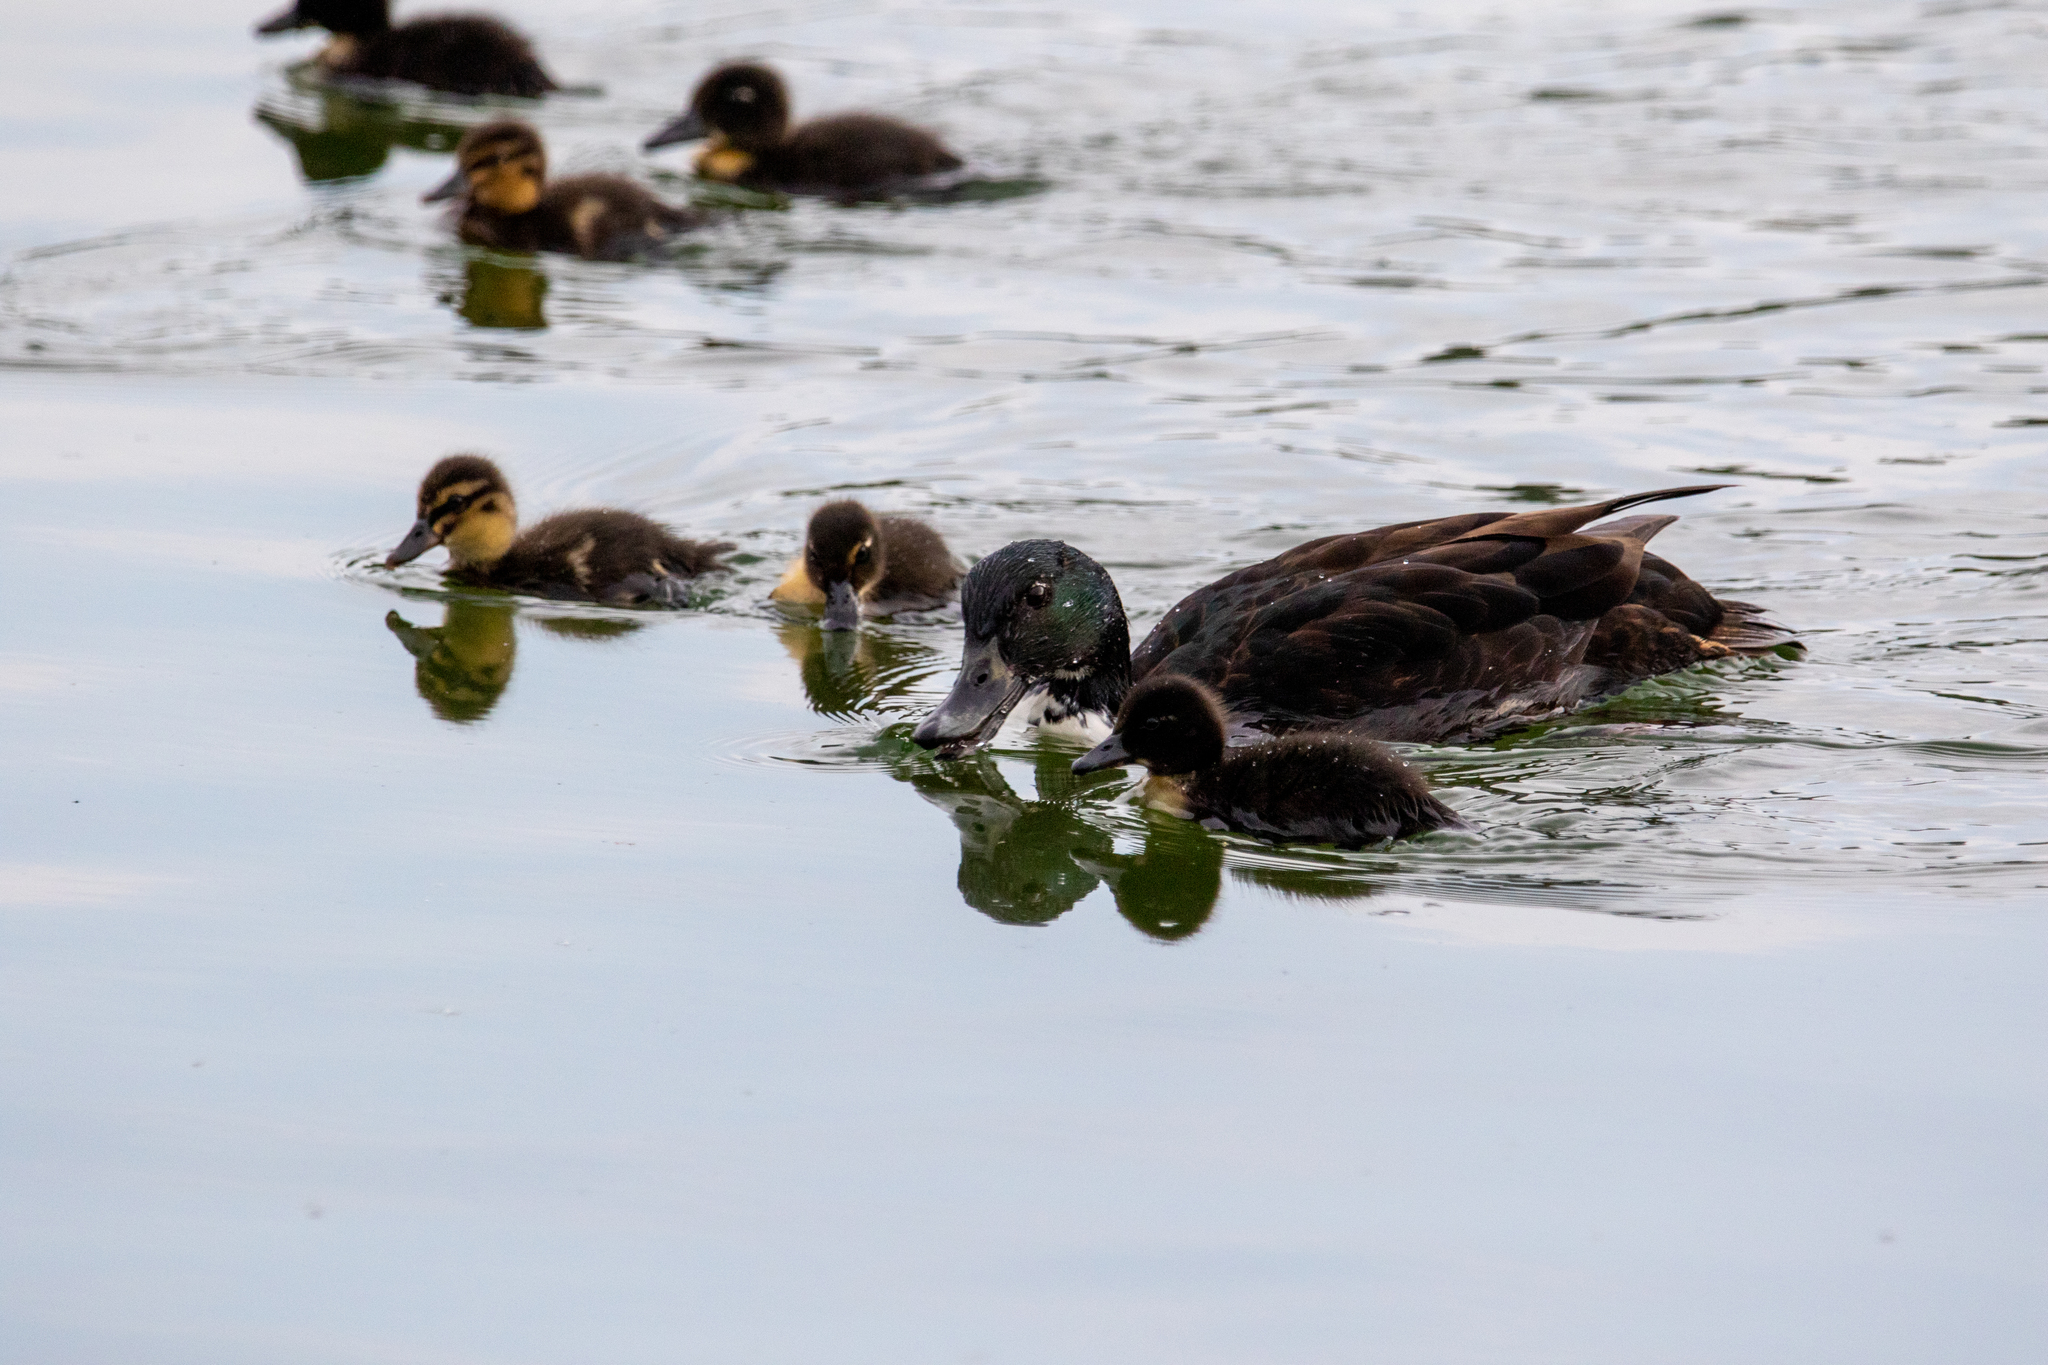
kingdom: Animalia
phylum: Chordata
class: Aves
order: Anseriformes
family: Anatidae
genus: Anas
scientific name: Anas platyrhynchos
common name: Mallard
